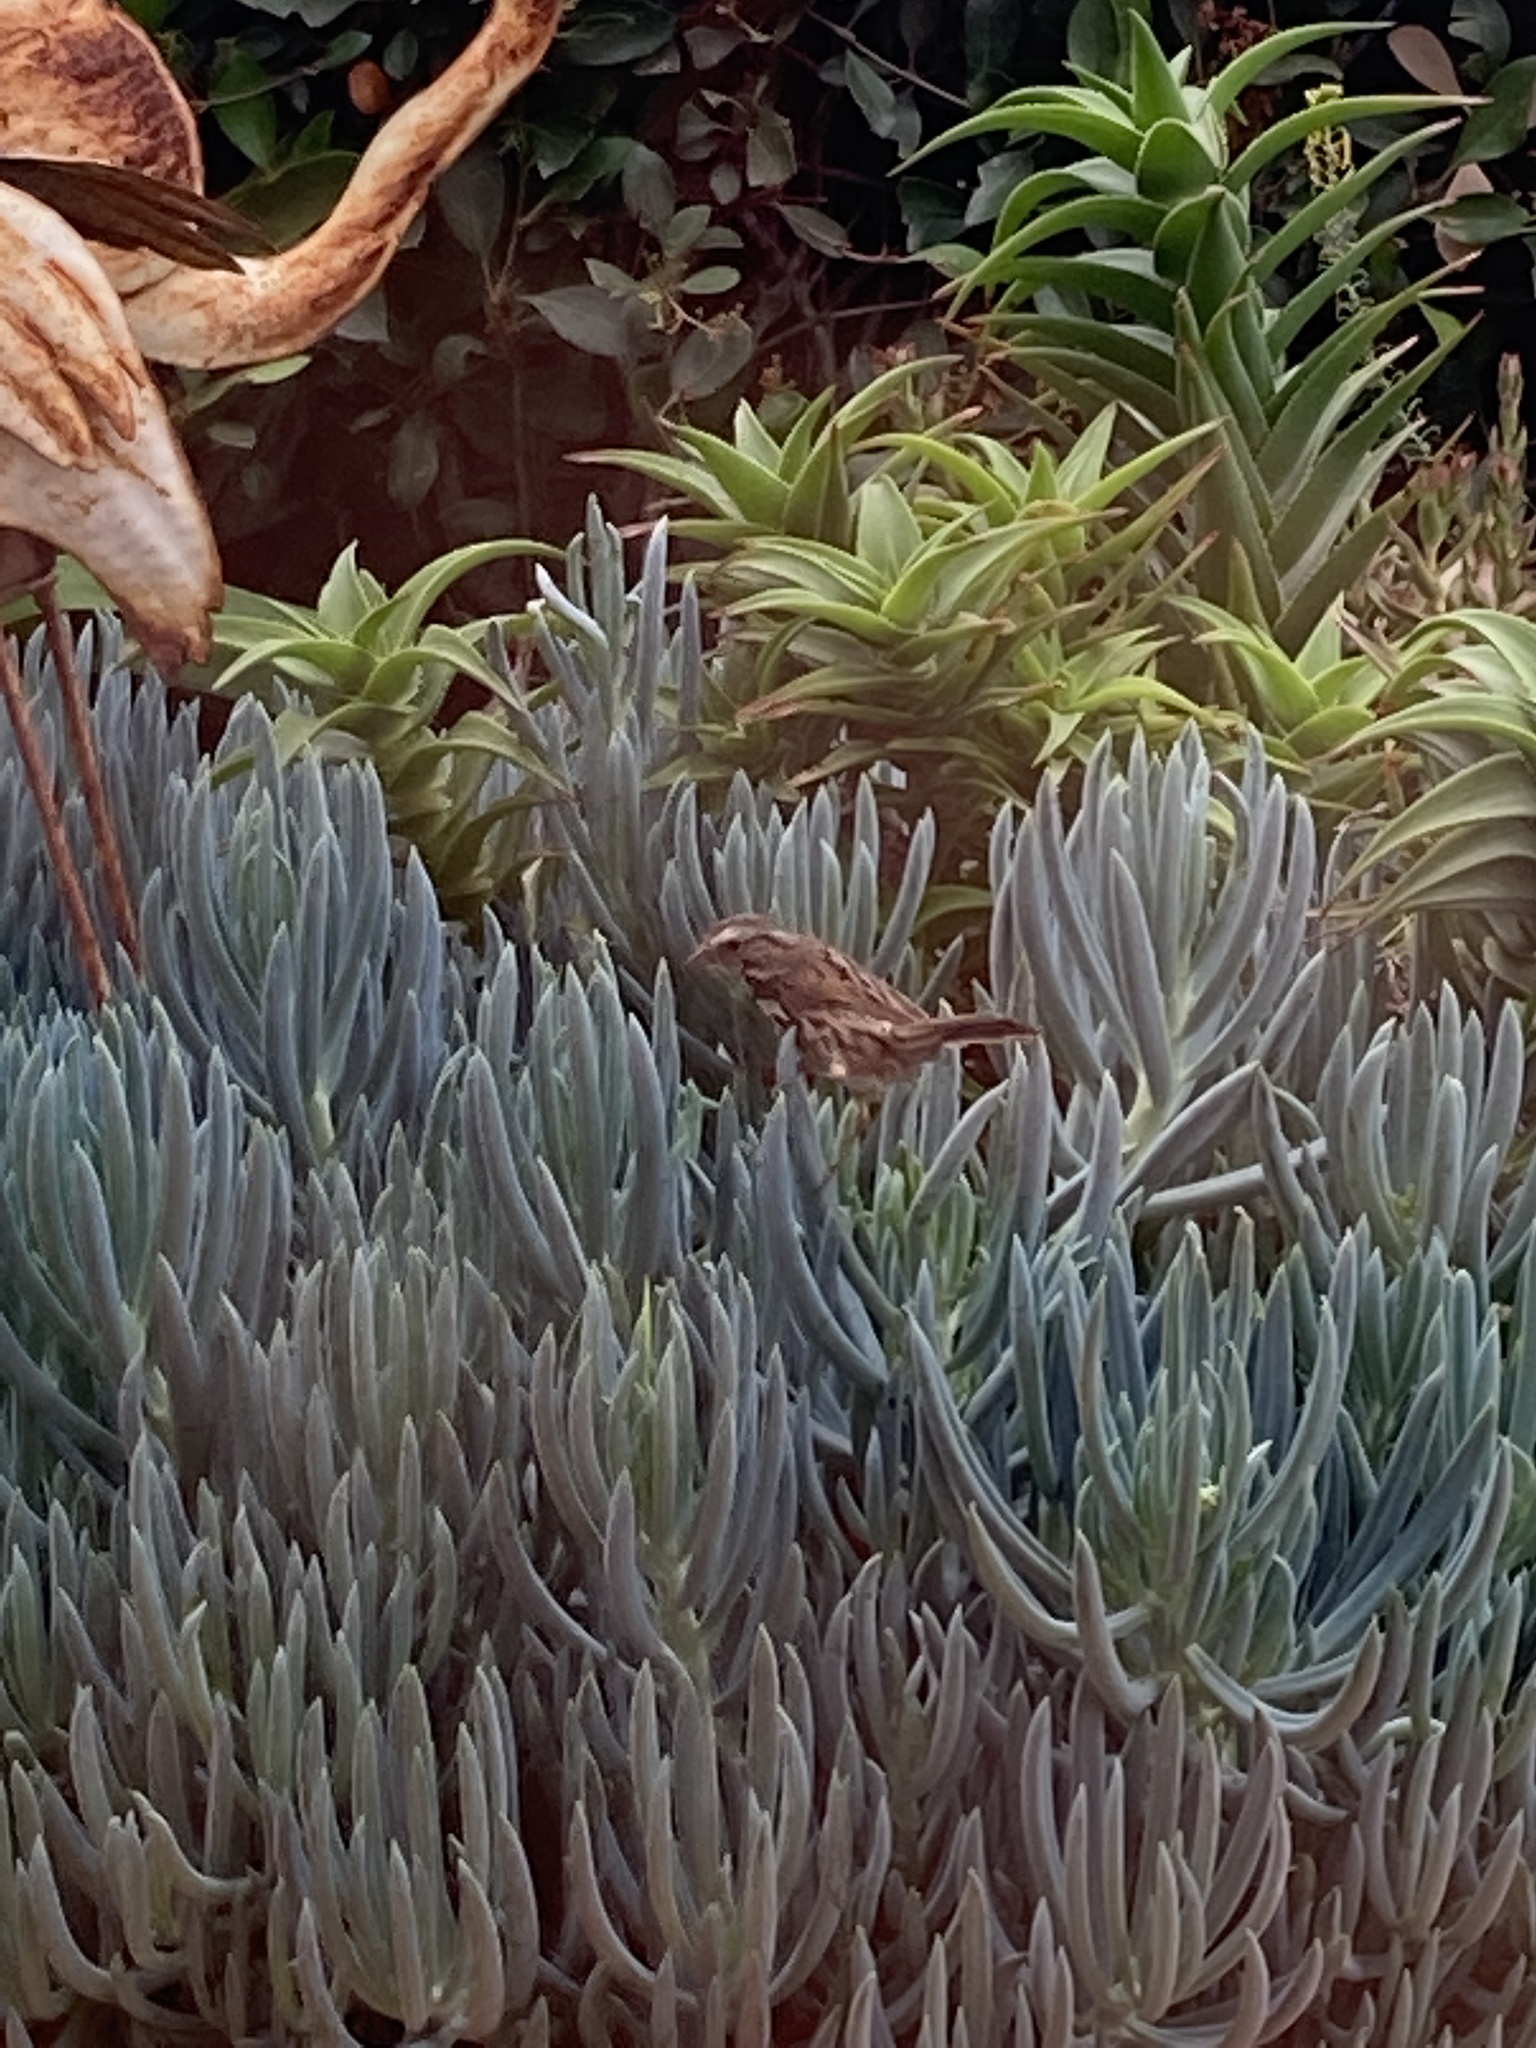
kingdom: Animalia
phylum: Chordata
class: Aves
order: Passeriformes
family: Passerellidae
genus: Melospiza
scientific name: Melospiza melodia
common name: Song sparrow
